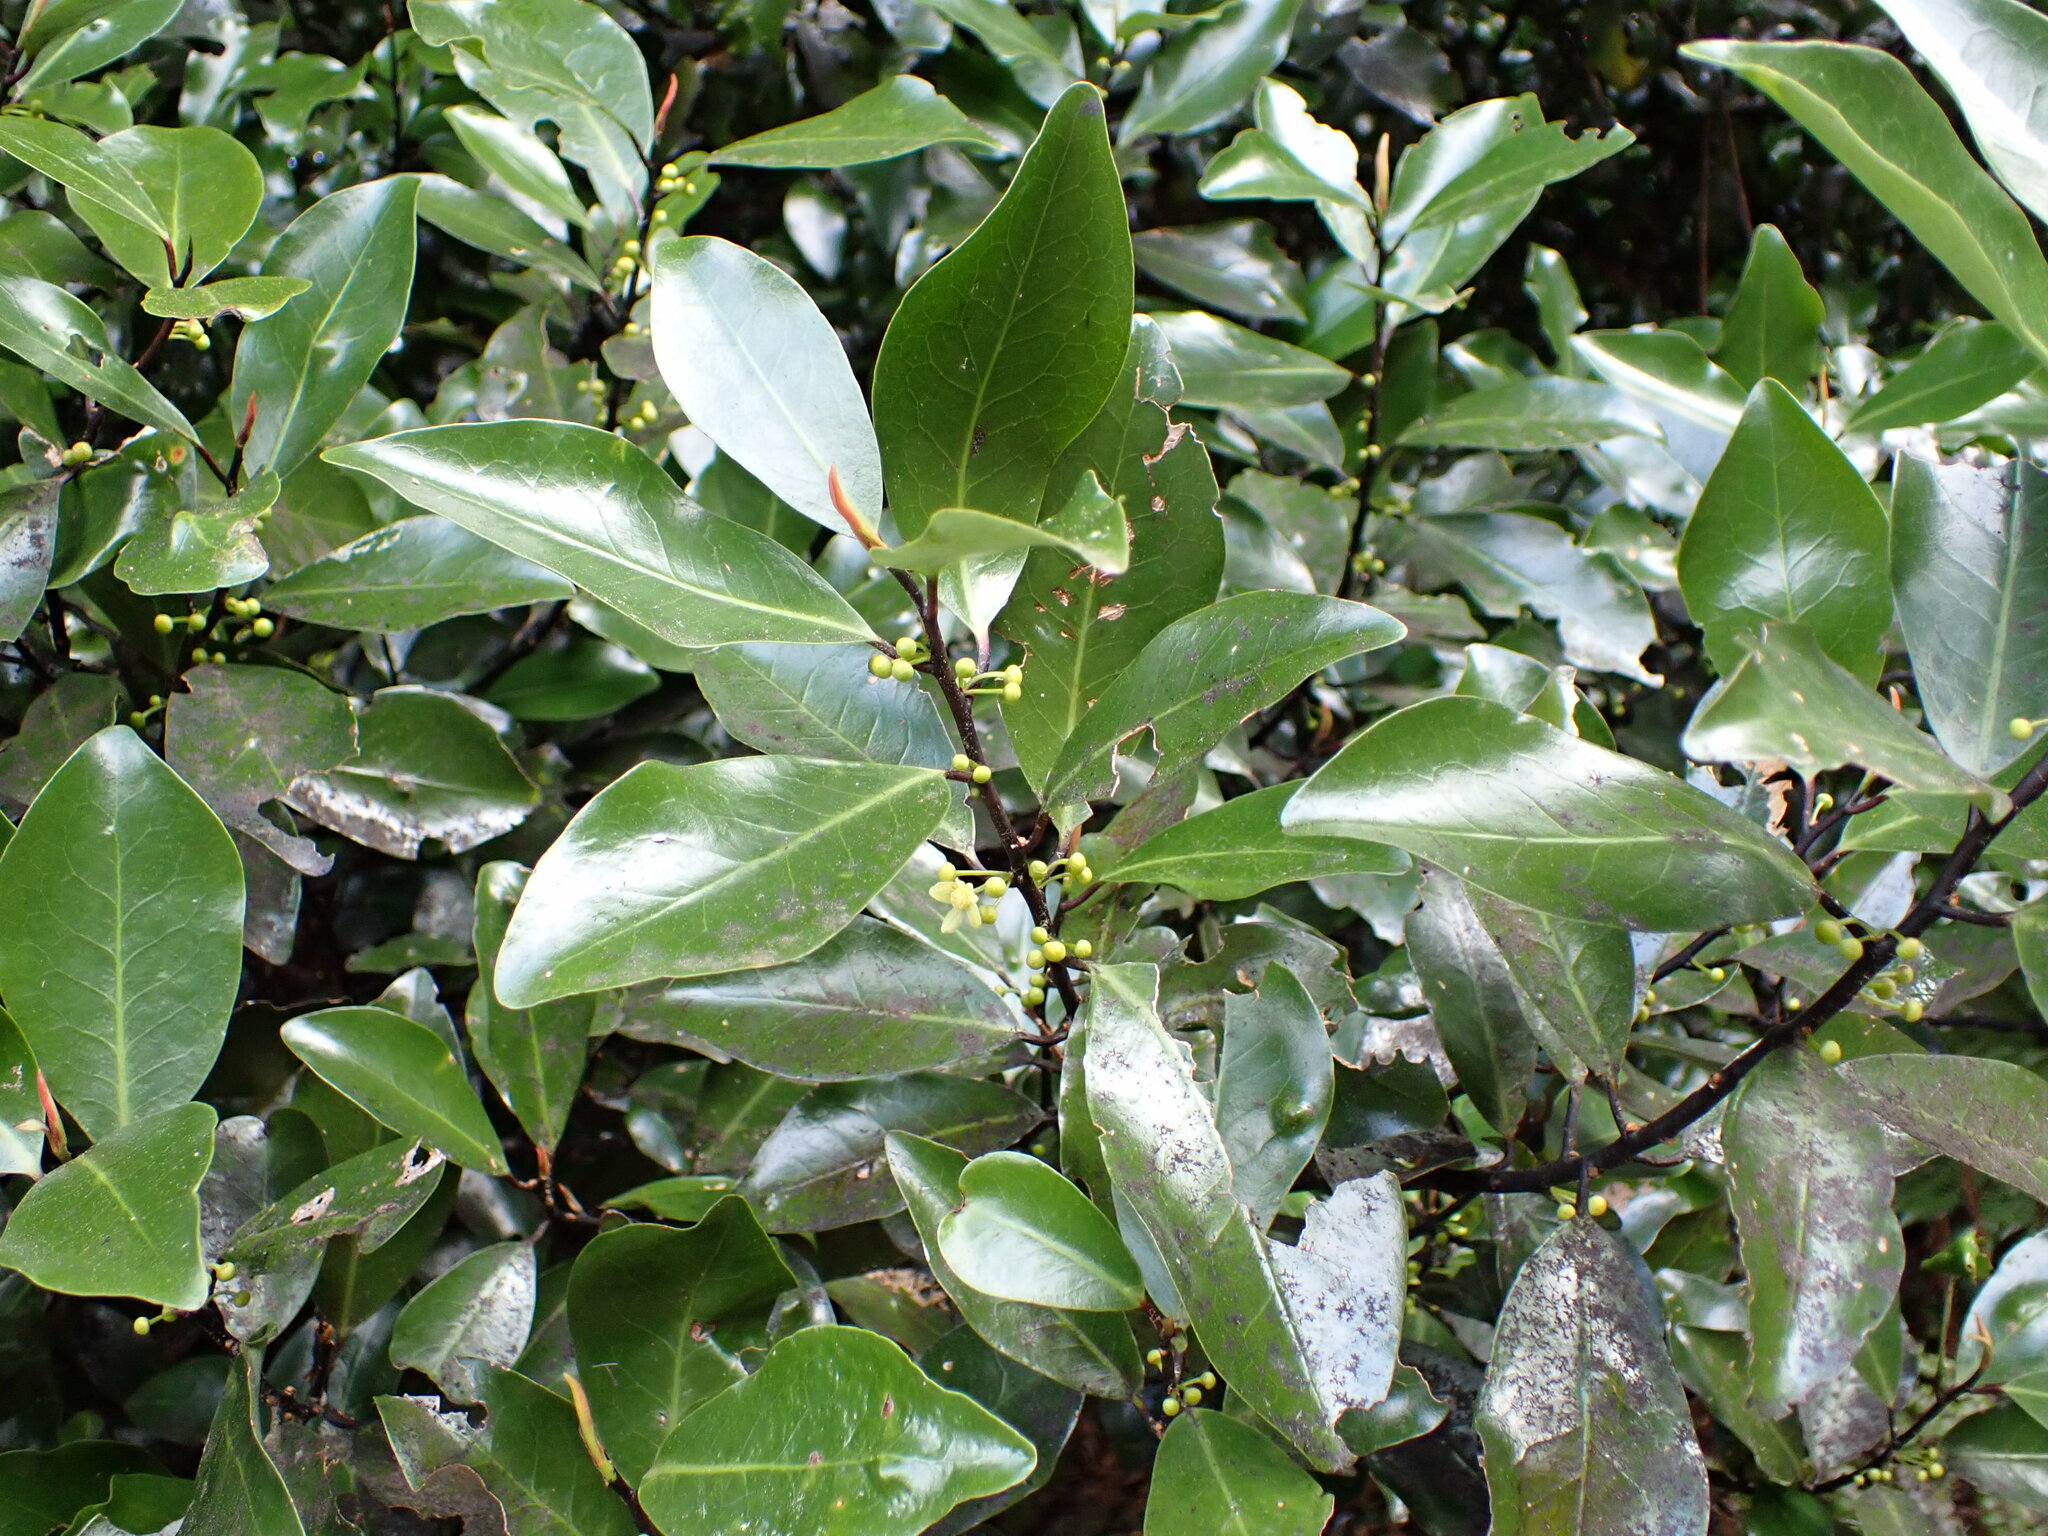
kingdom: Plantae
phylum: Tracheophyta
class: Magnoliopsida
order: Canellales
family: Winteraceae
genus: Pseudowintera
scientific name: Pseudowintera axillaris
